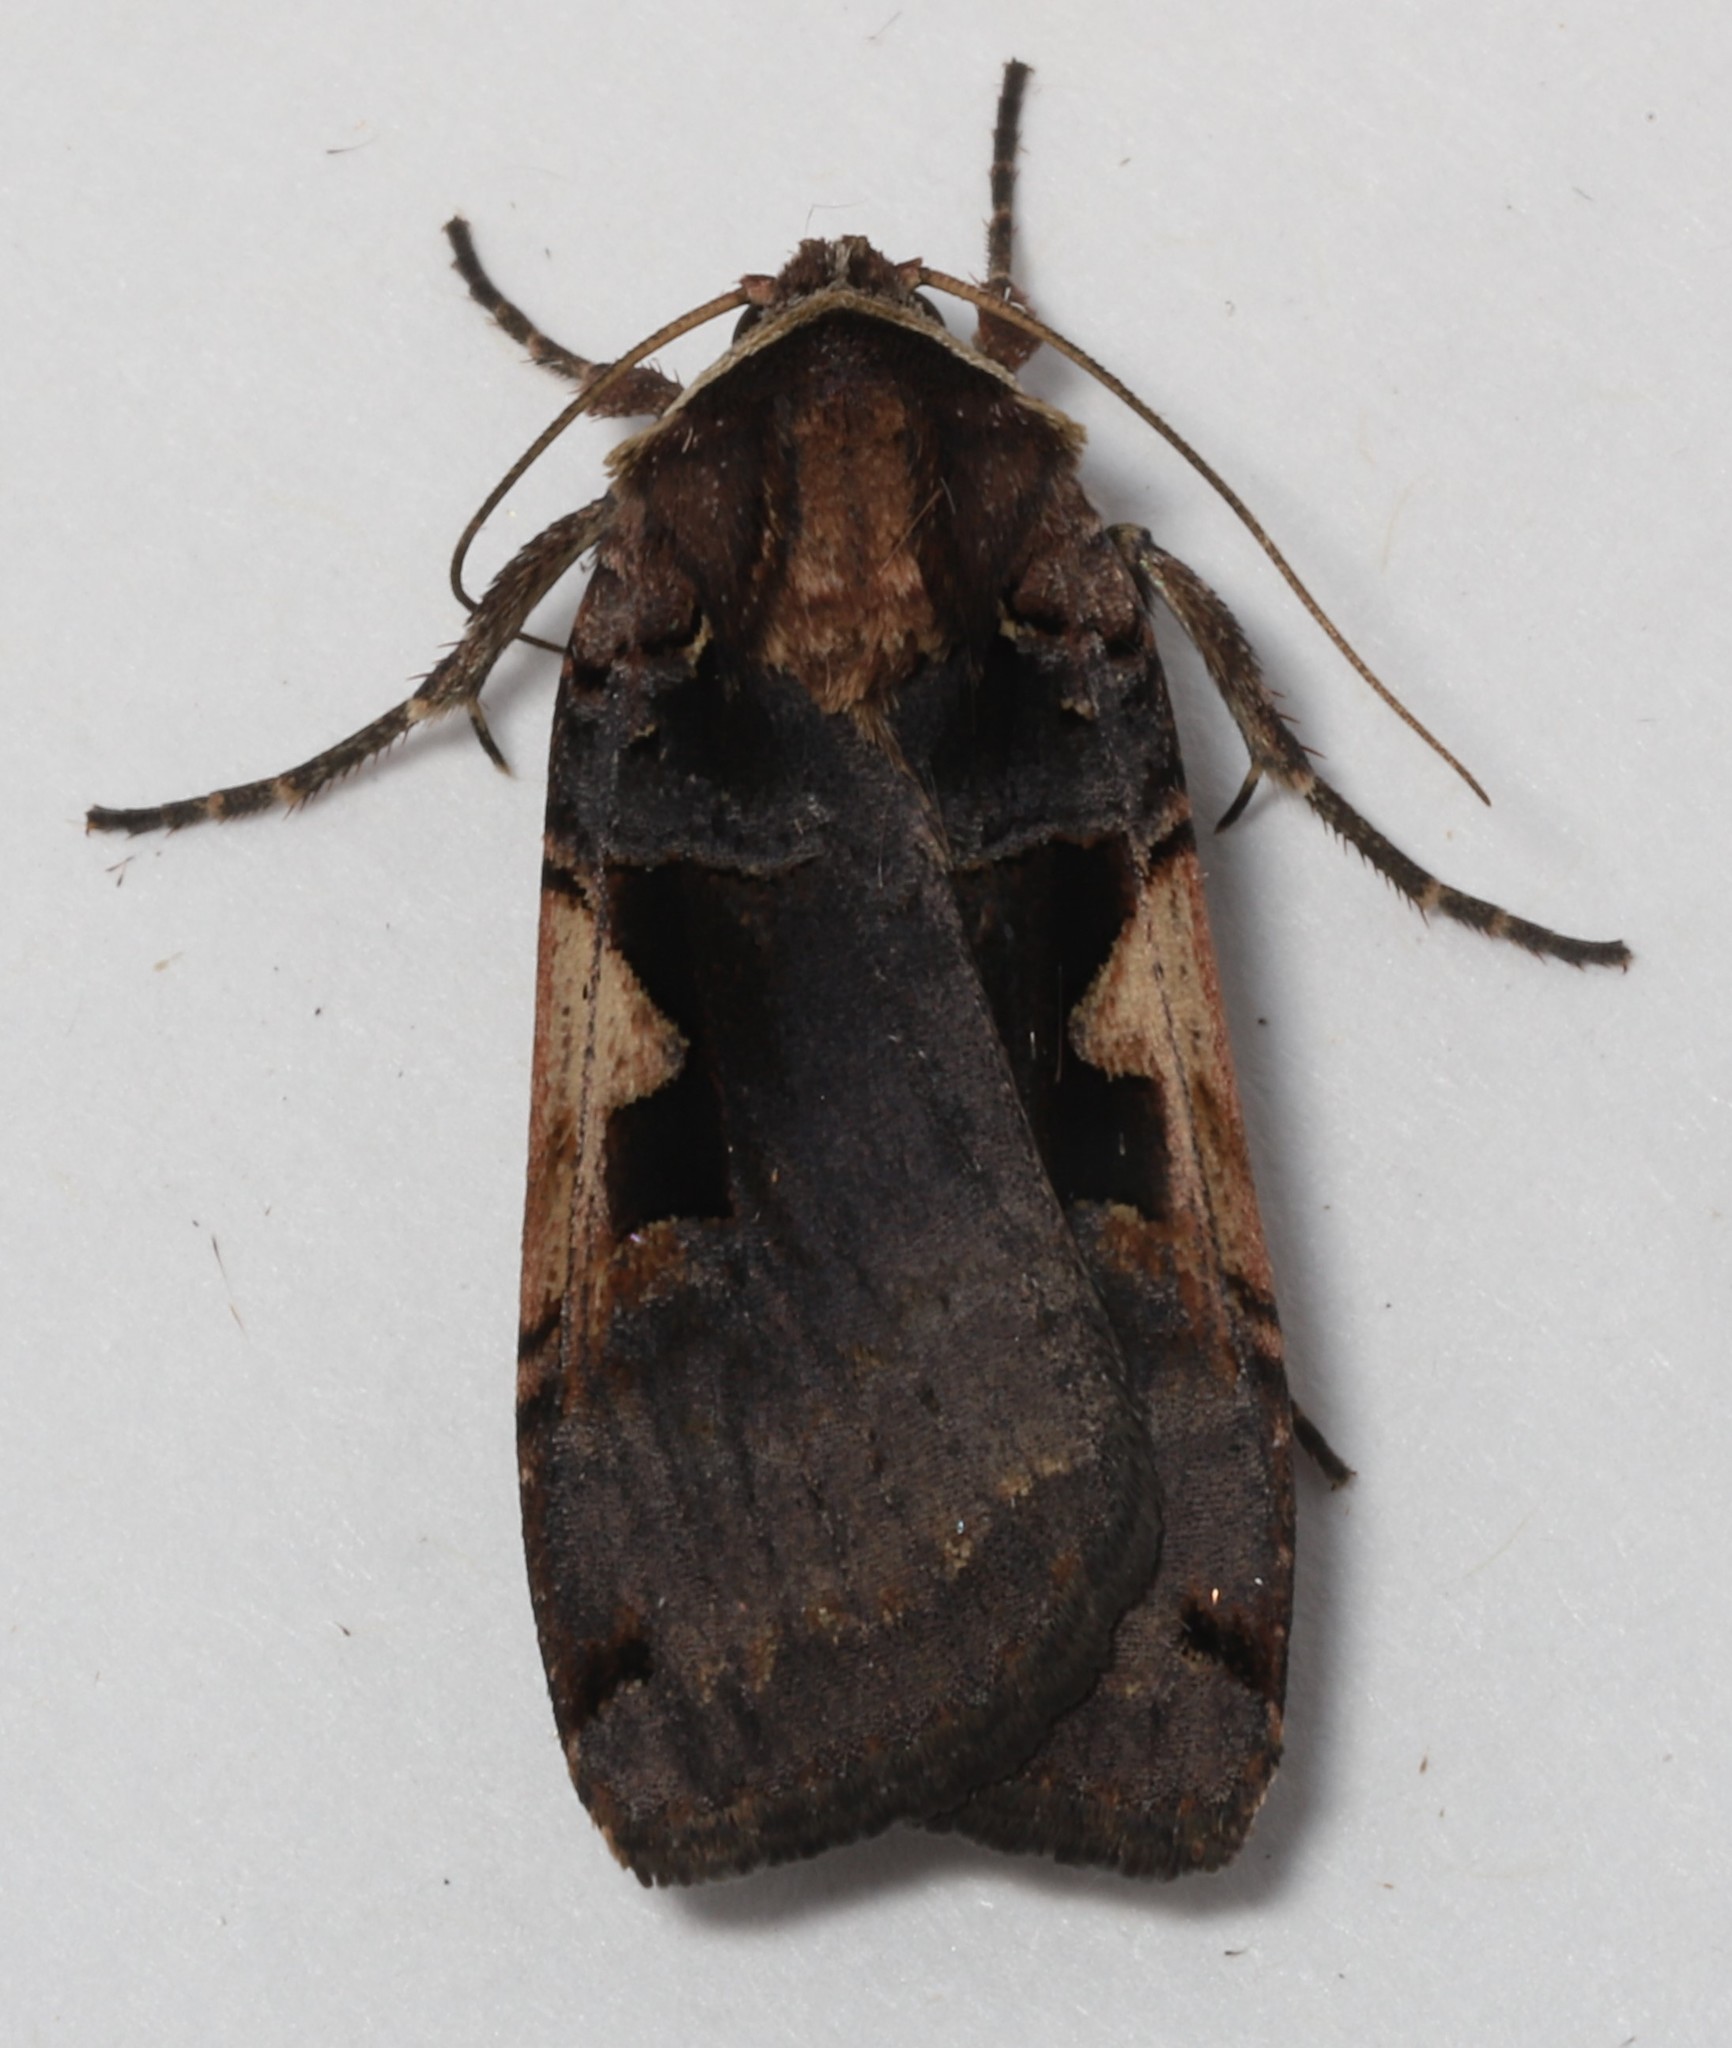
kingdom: Animalia
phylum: Arthropoda
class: Insecta
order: Lepidoptera
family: Noctuidae
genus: Xestia
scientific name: Xestia
